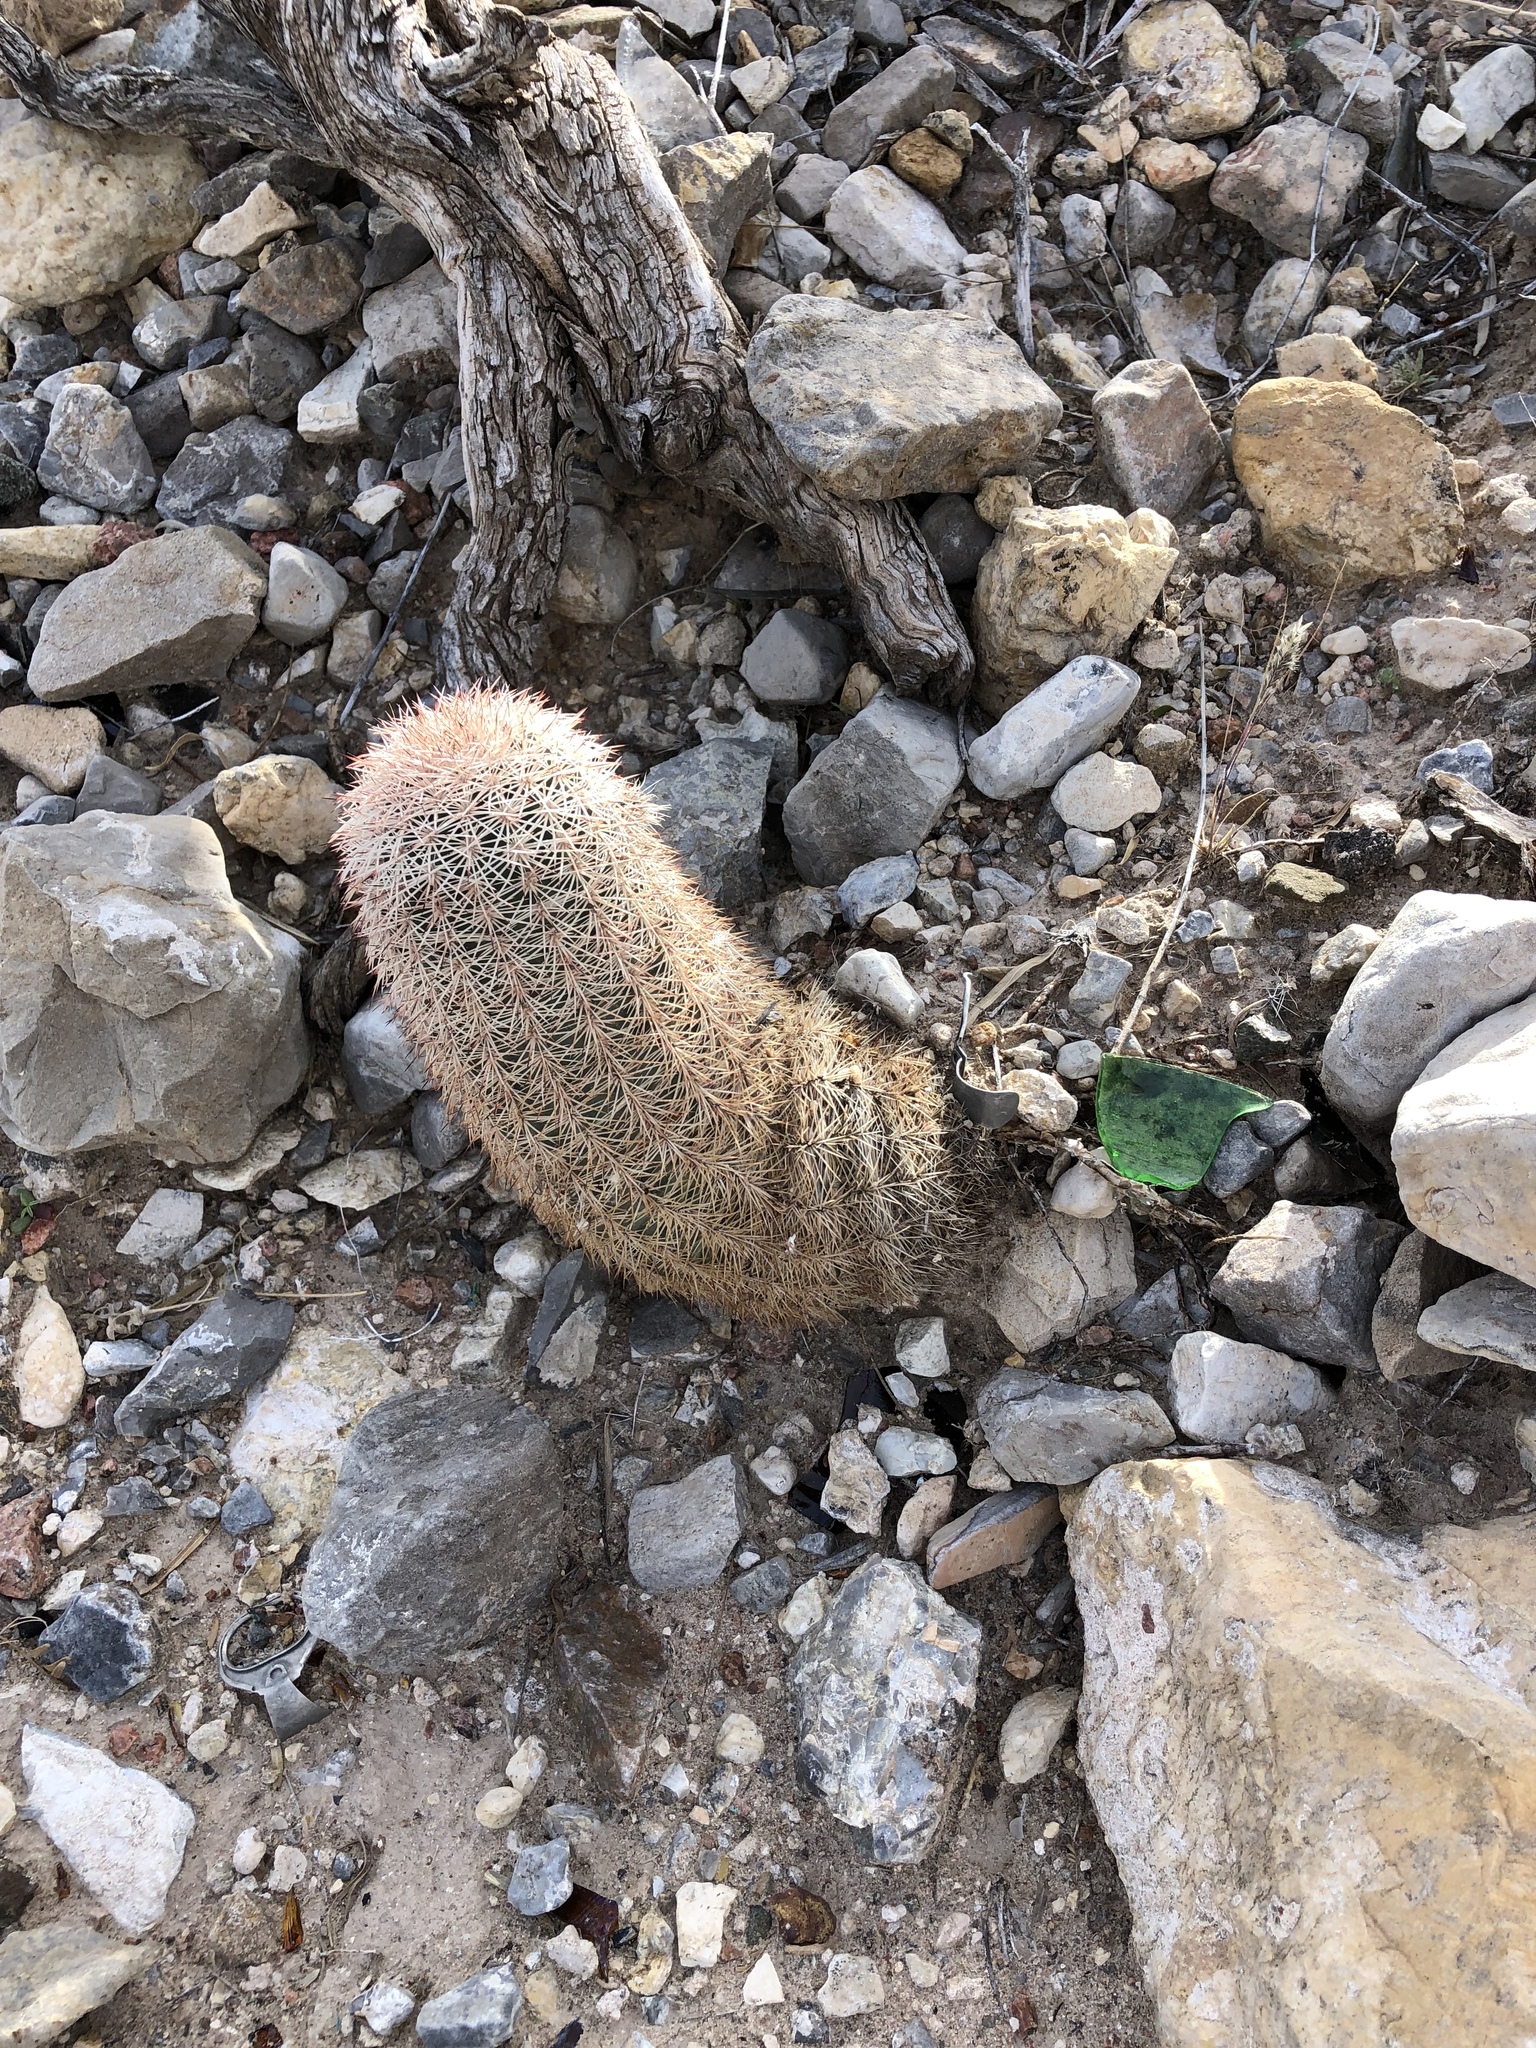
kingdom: Plantae
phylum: Tracheophyta
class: Magnoliopsida
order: Caryophyllales
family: Cactaceae
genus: Echinocereus
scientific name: Echinocereus dasyacanthus
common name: Spiny hedgehog cactus
